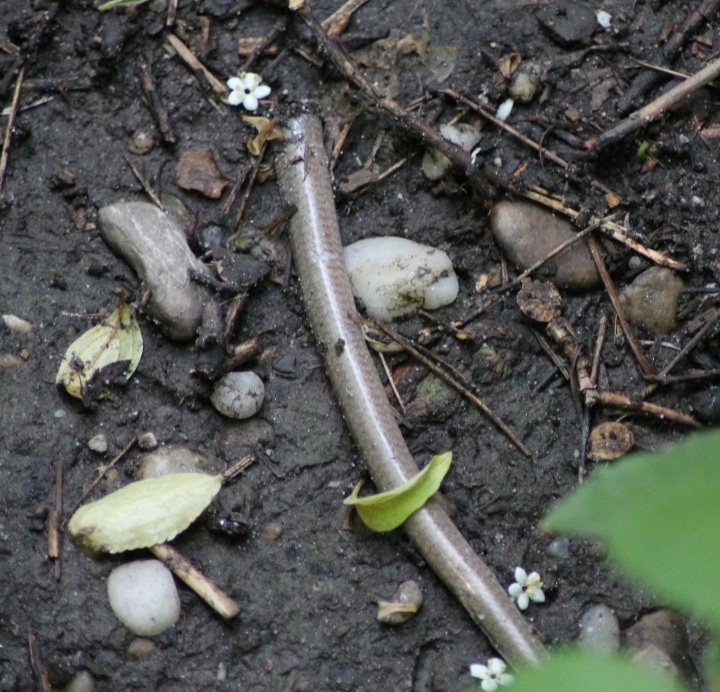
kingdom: Animalia
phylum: Chordata
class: Squamata
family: Anguidae
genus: Anguis
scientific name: Anguis fragilis
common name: Slow worm
